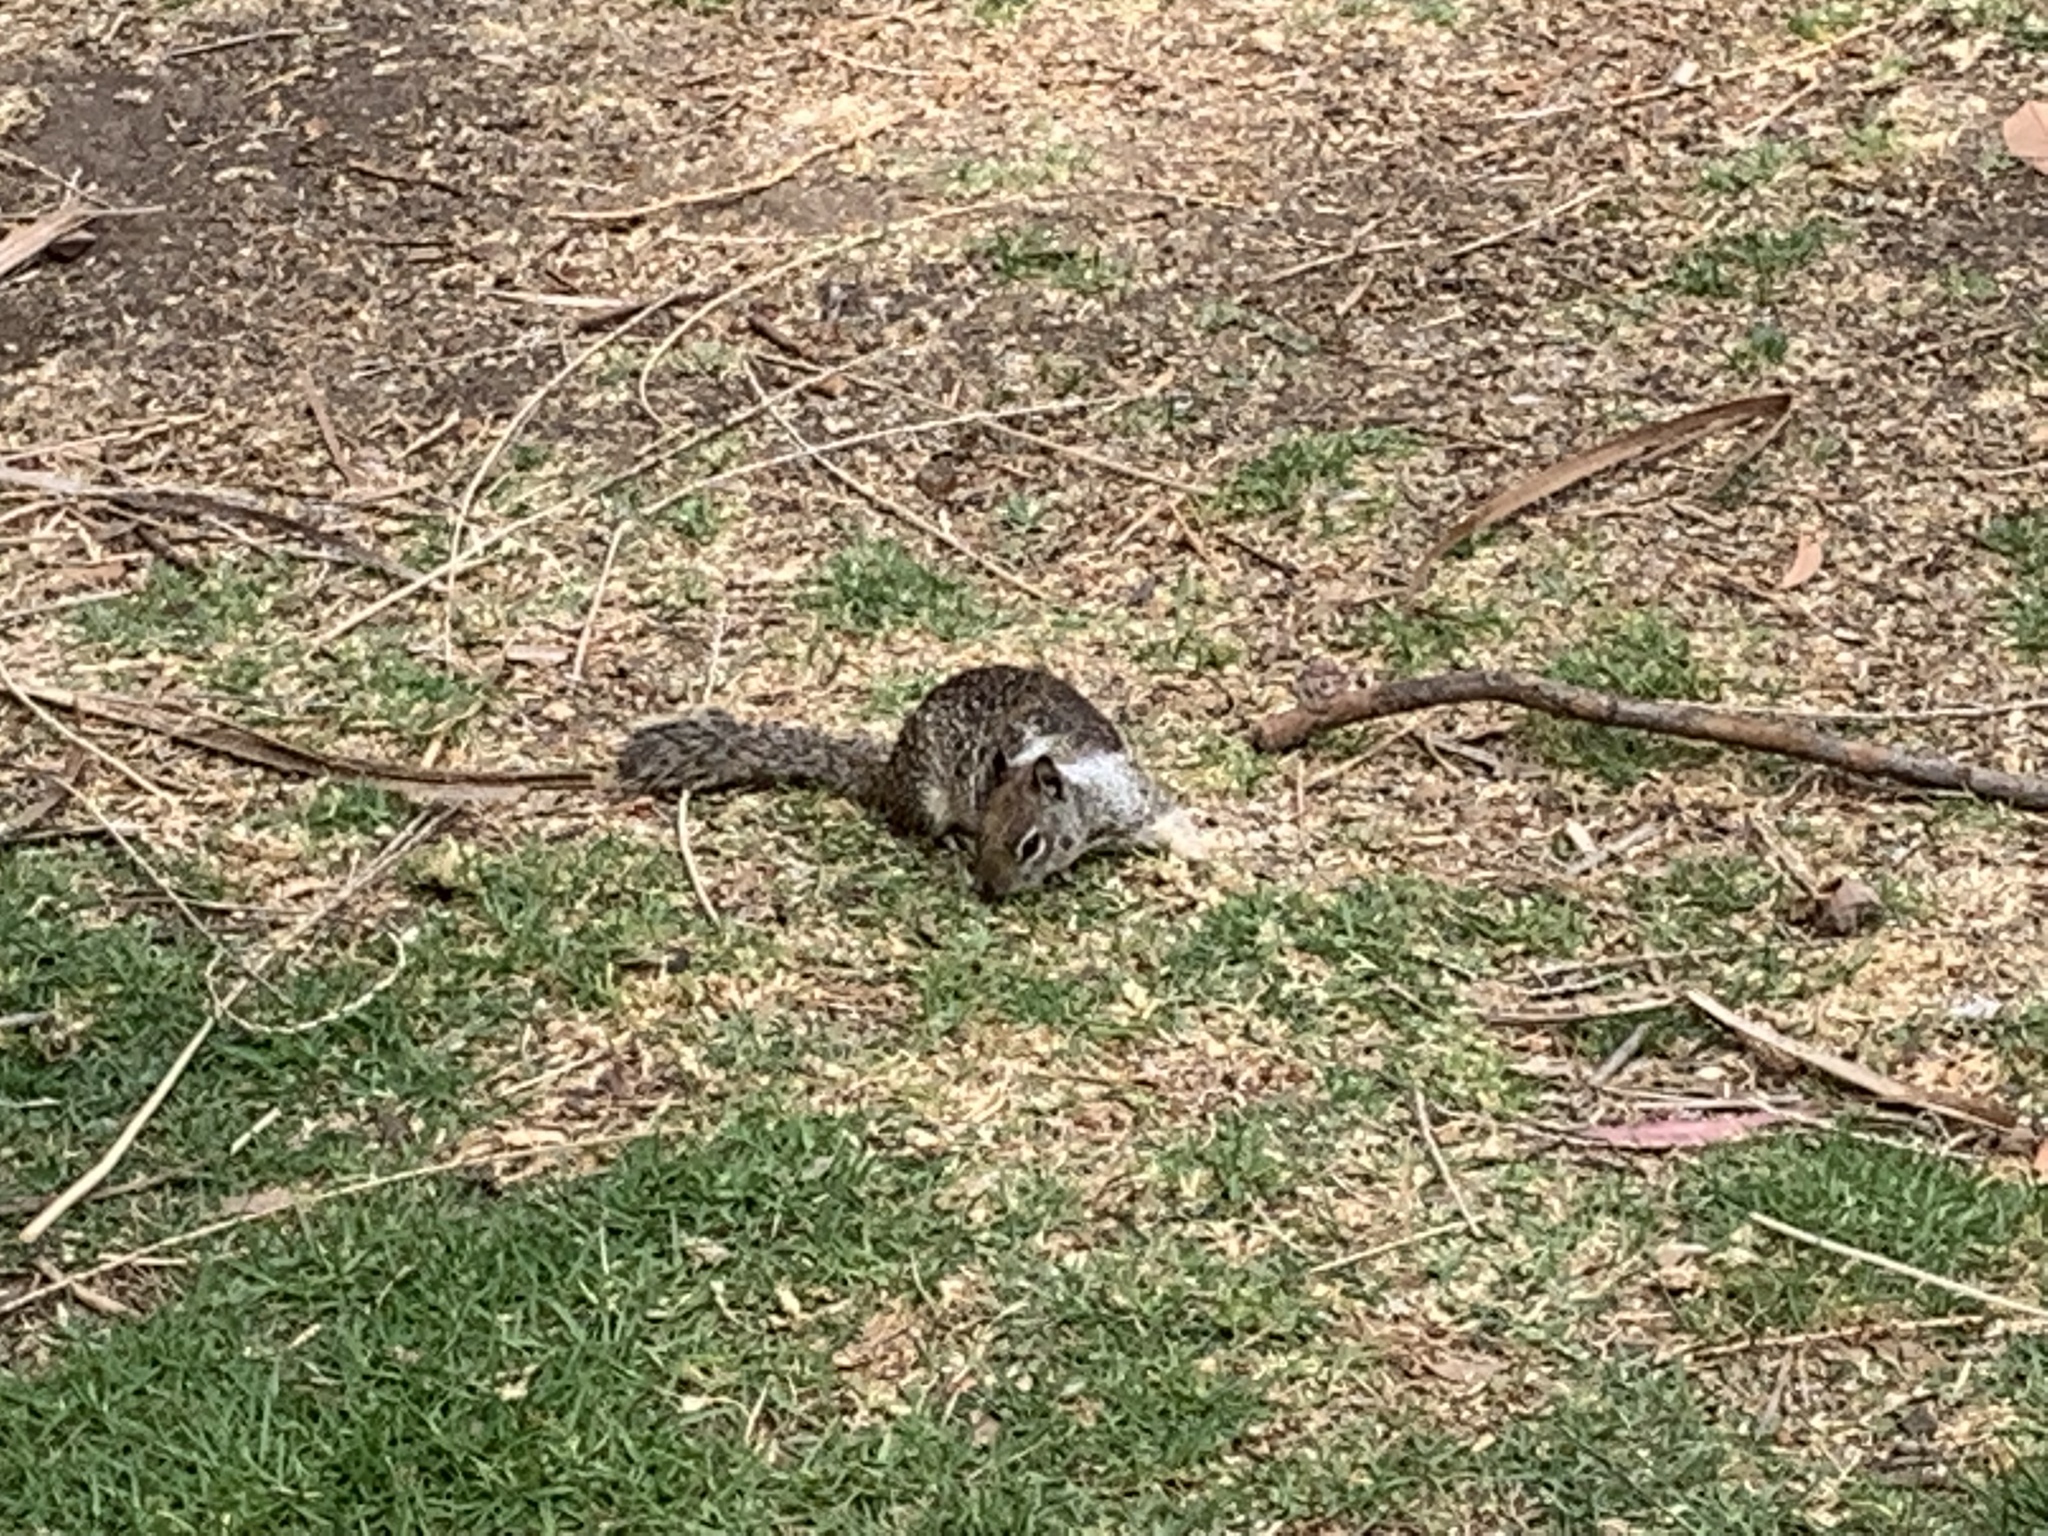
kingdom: Animalia
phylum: Chordata
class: Mammalia
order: Rodentia
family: Sciuridae
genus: Otospermophilus
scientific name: Otospermophilus beecheyi
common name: California ground squirrel
